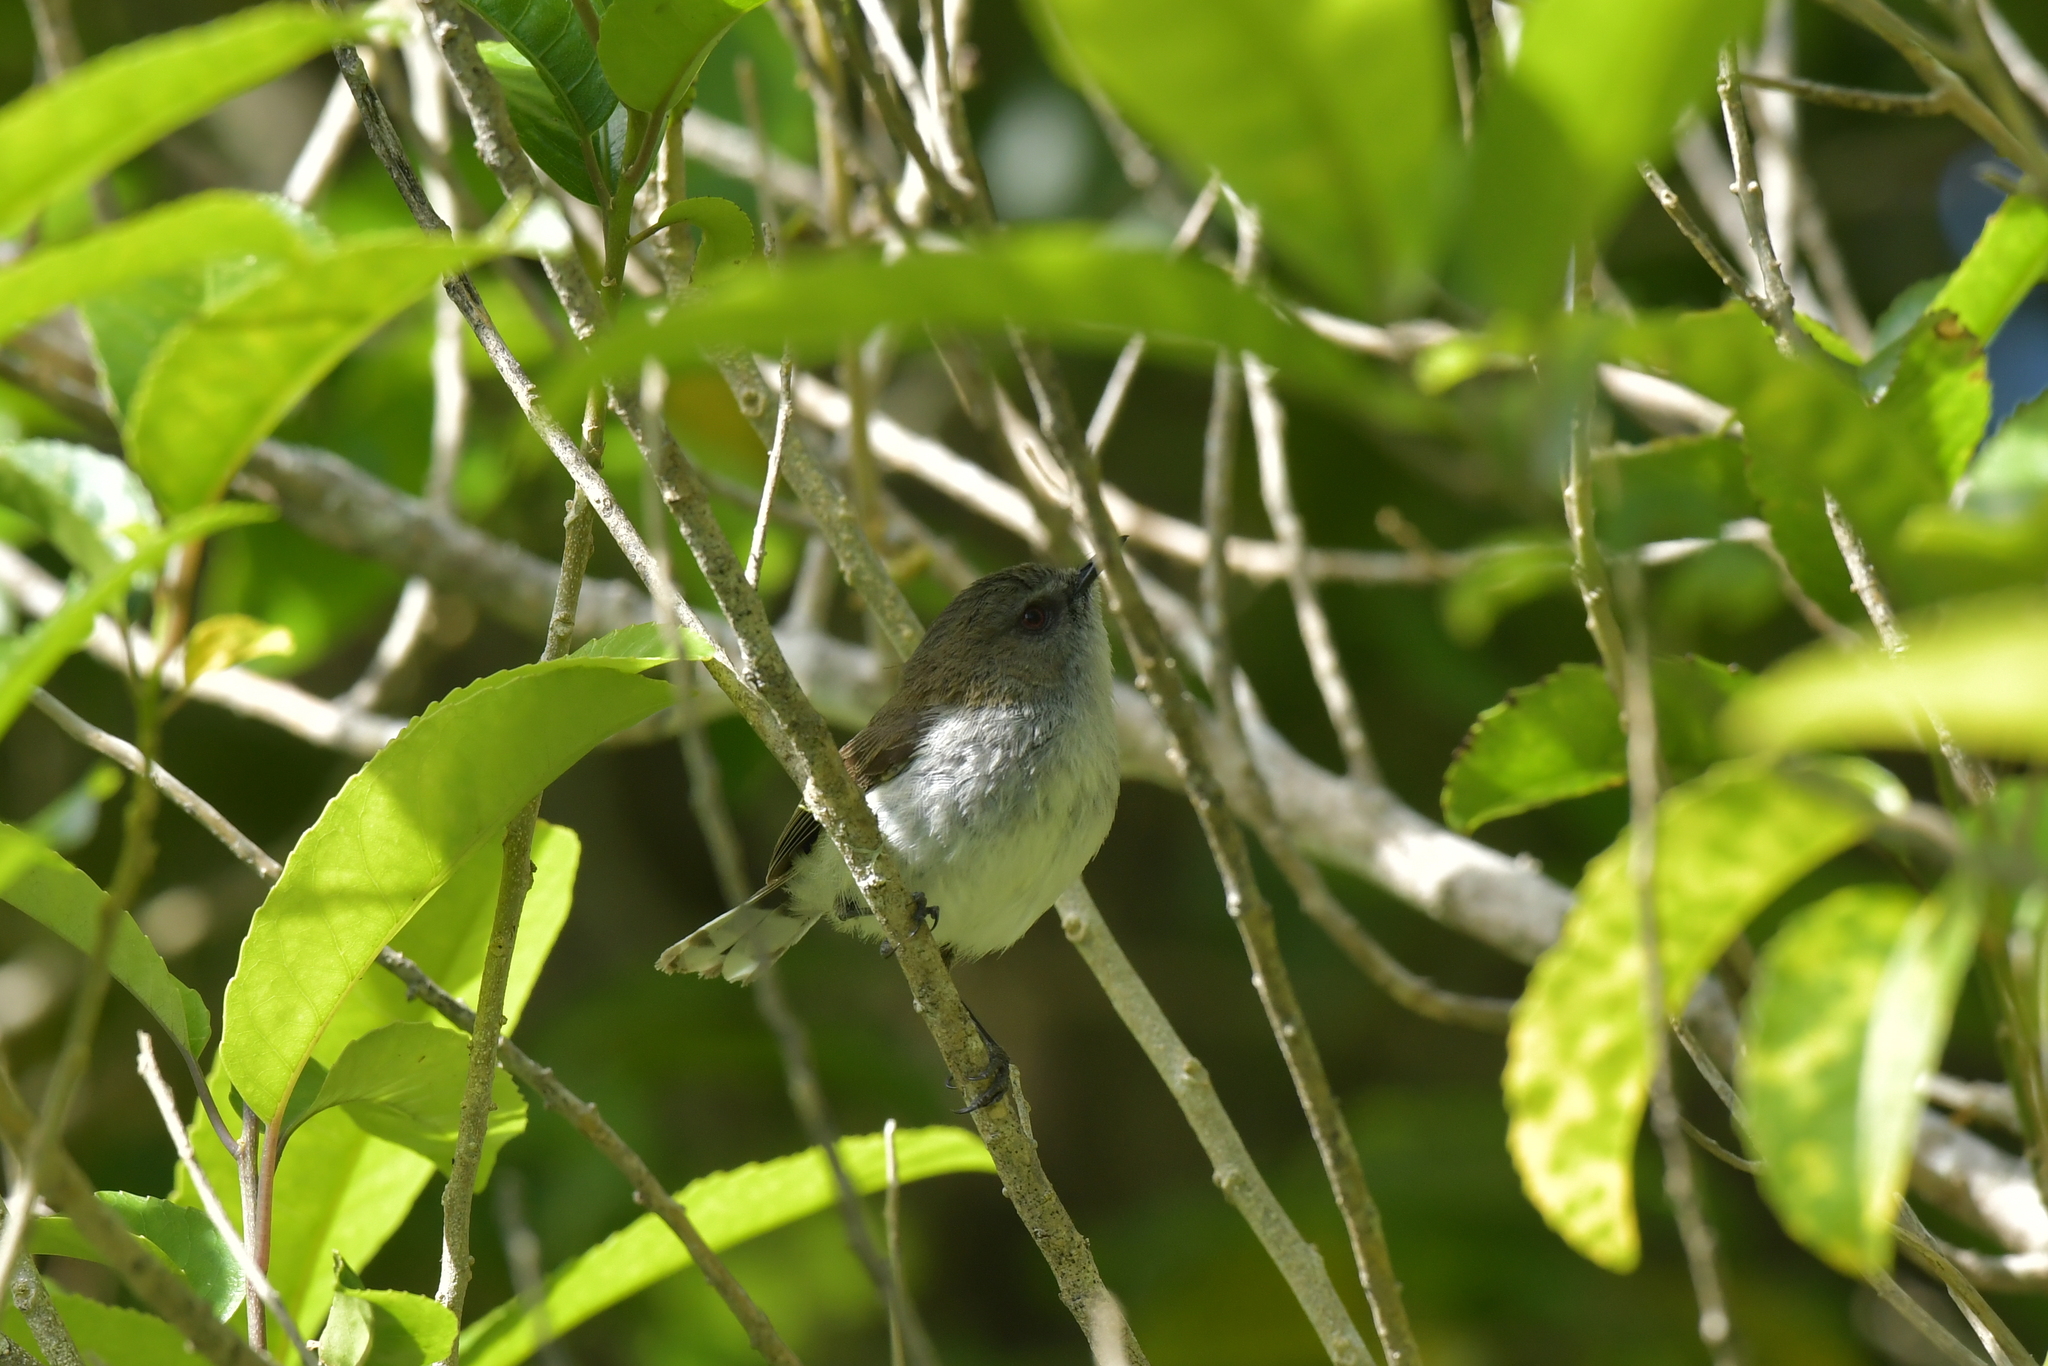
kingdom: Animalia
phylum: Chordata
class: Aves
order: Passeriformes
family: Acanthizidae
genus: Gerygone
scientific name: Gerygone igata
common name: Grey gerygone
